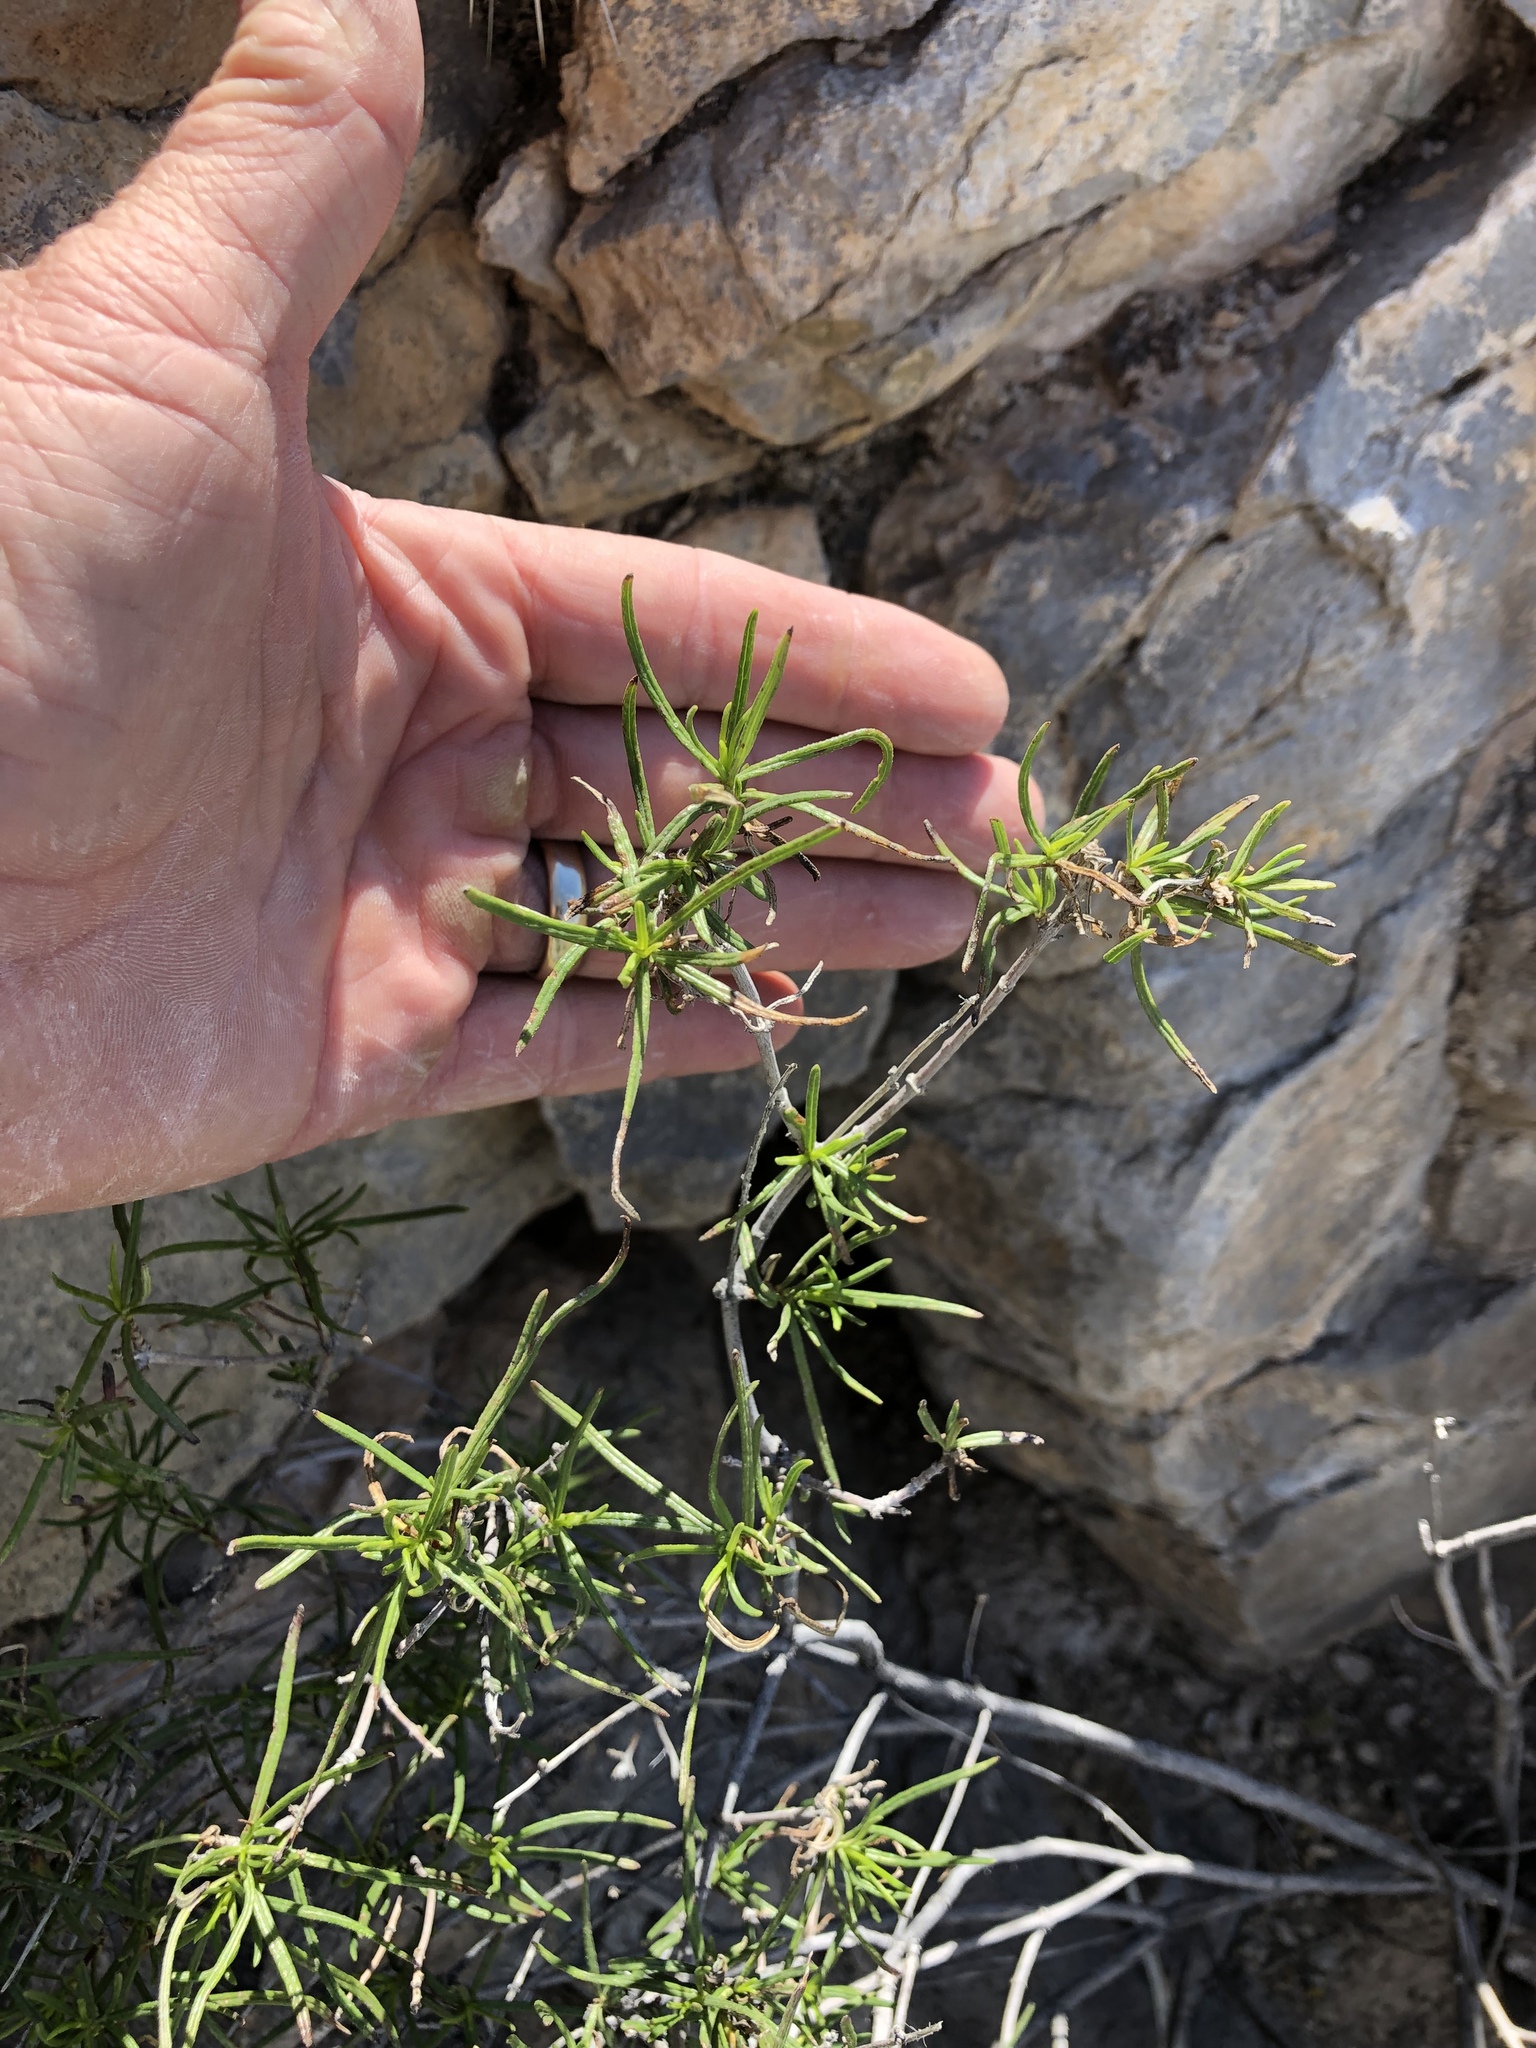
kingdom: Plantae
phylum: Tracheophyta
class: Magnoliopsida
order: Asterales
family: Asteraceae
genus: Sidneya
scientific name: Sidneya tenuifolia
